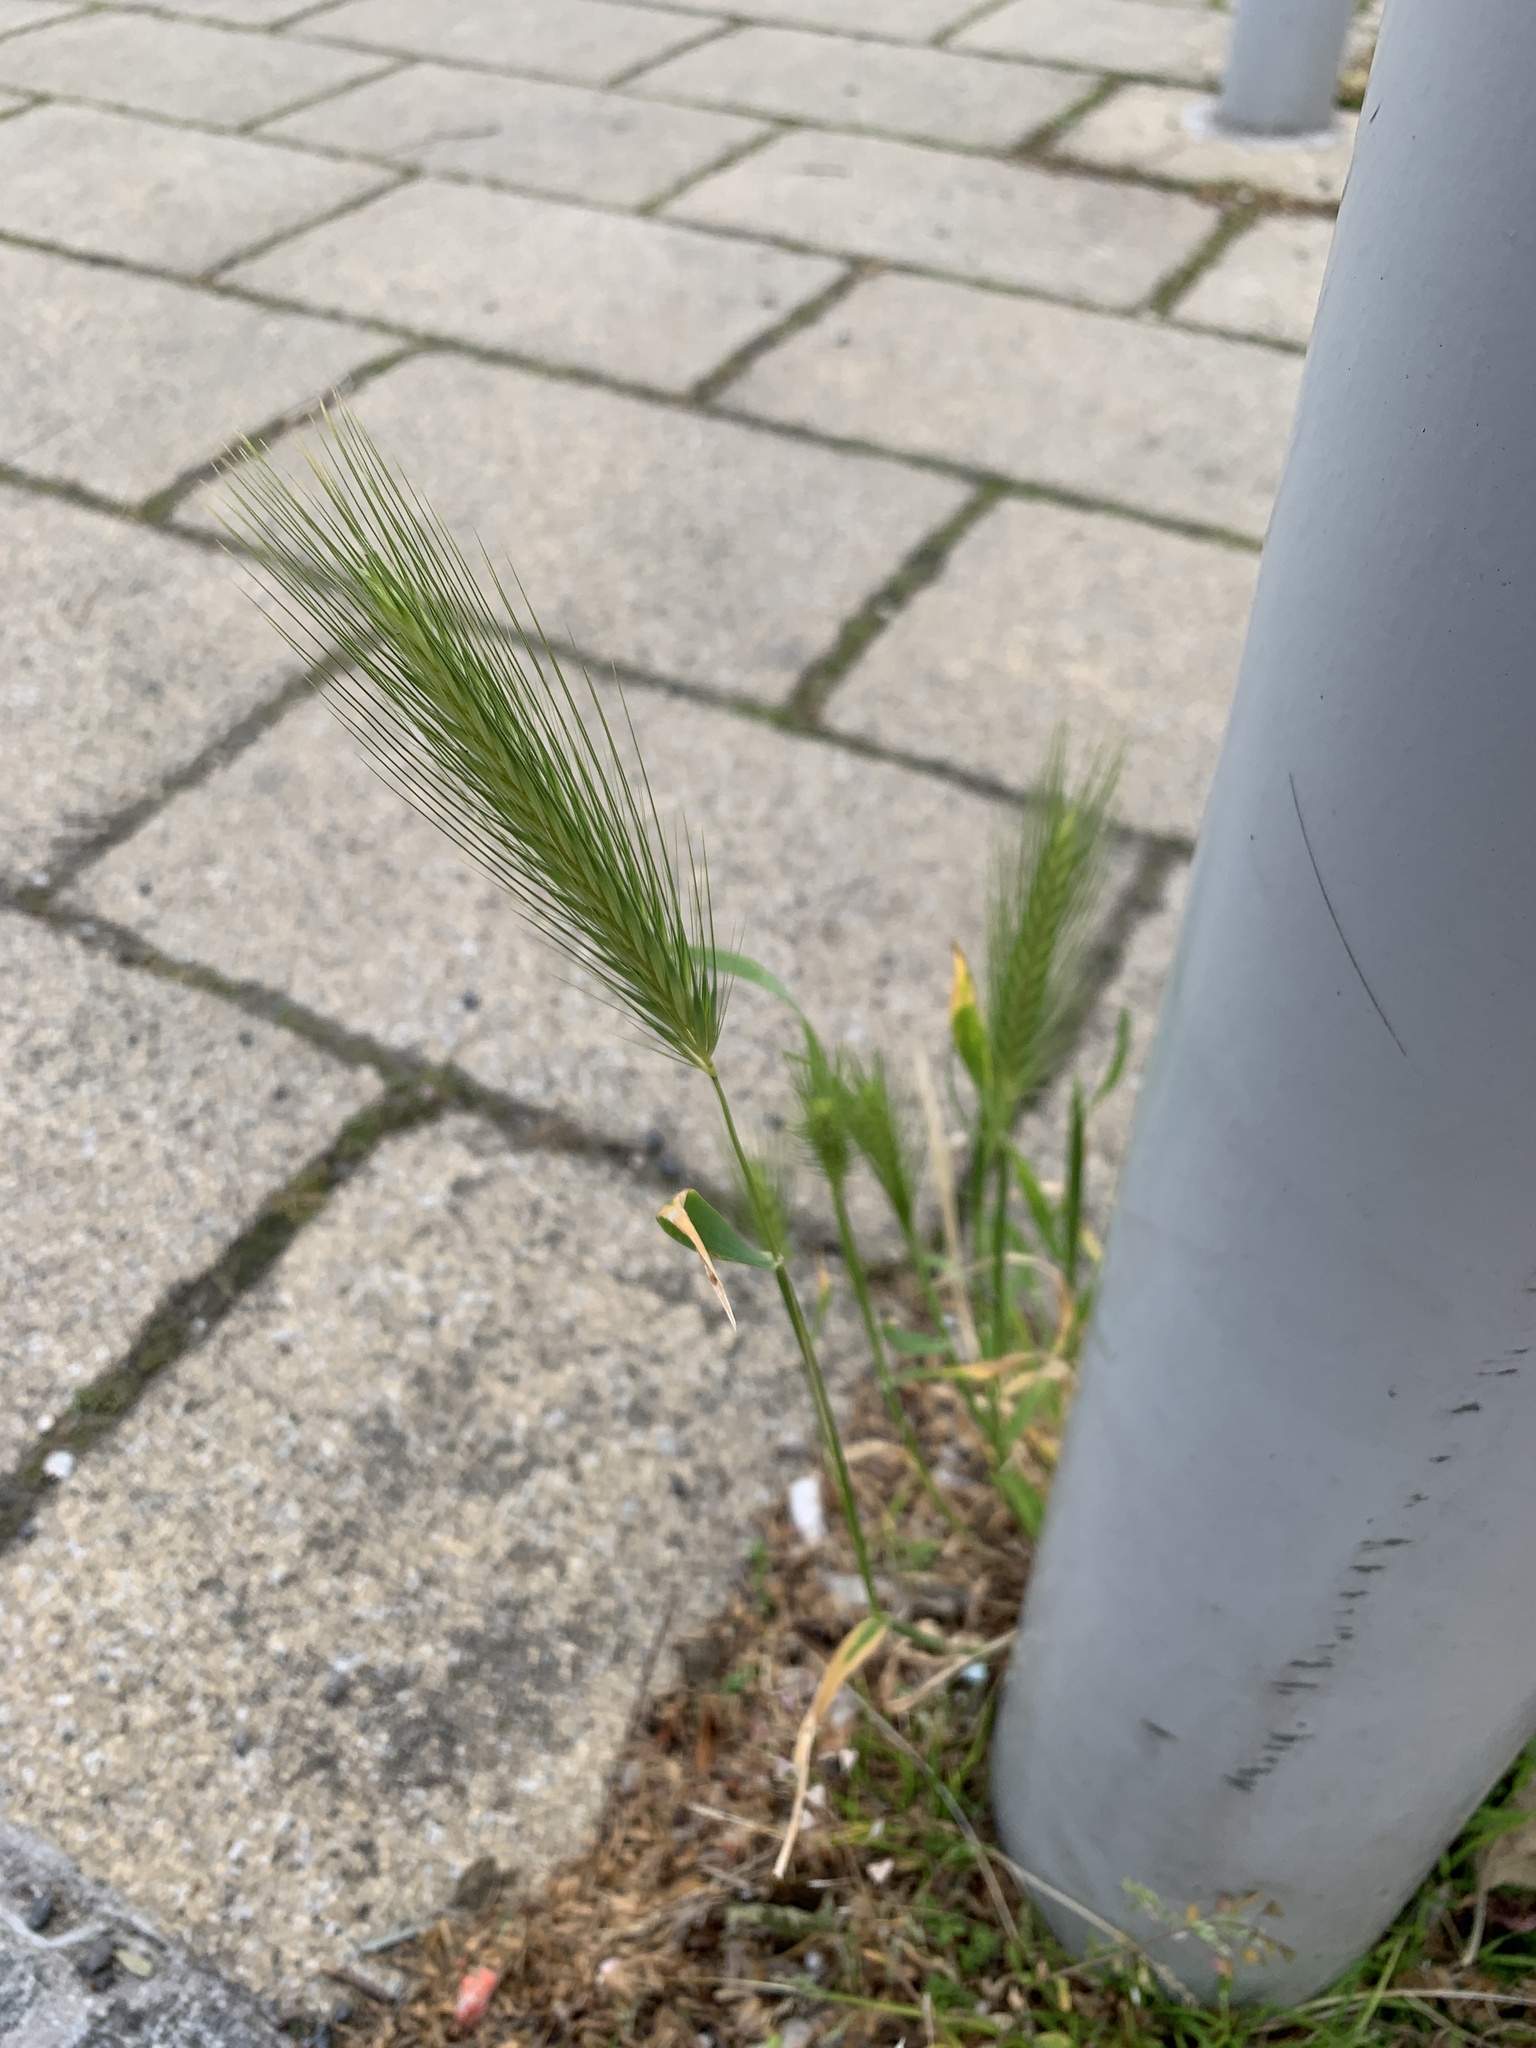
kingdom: Plantae
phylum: Tracheophyta
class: Liliopsida
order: Poales
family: Poaceae
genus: Hordeum
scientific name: Hordeum murinum
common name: Wall barley
